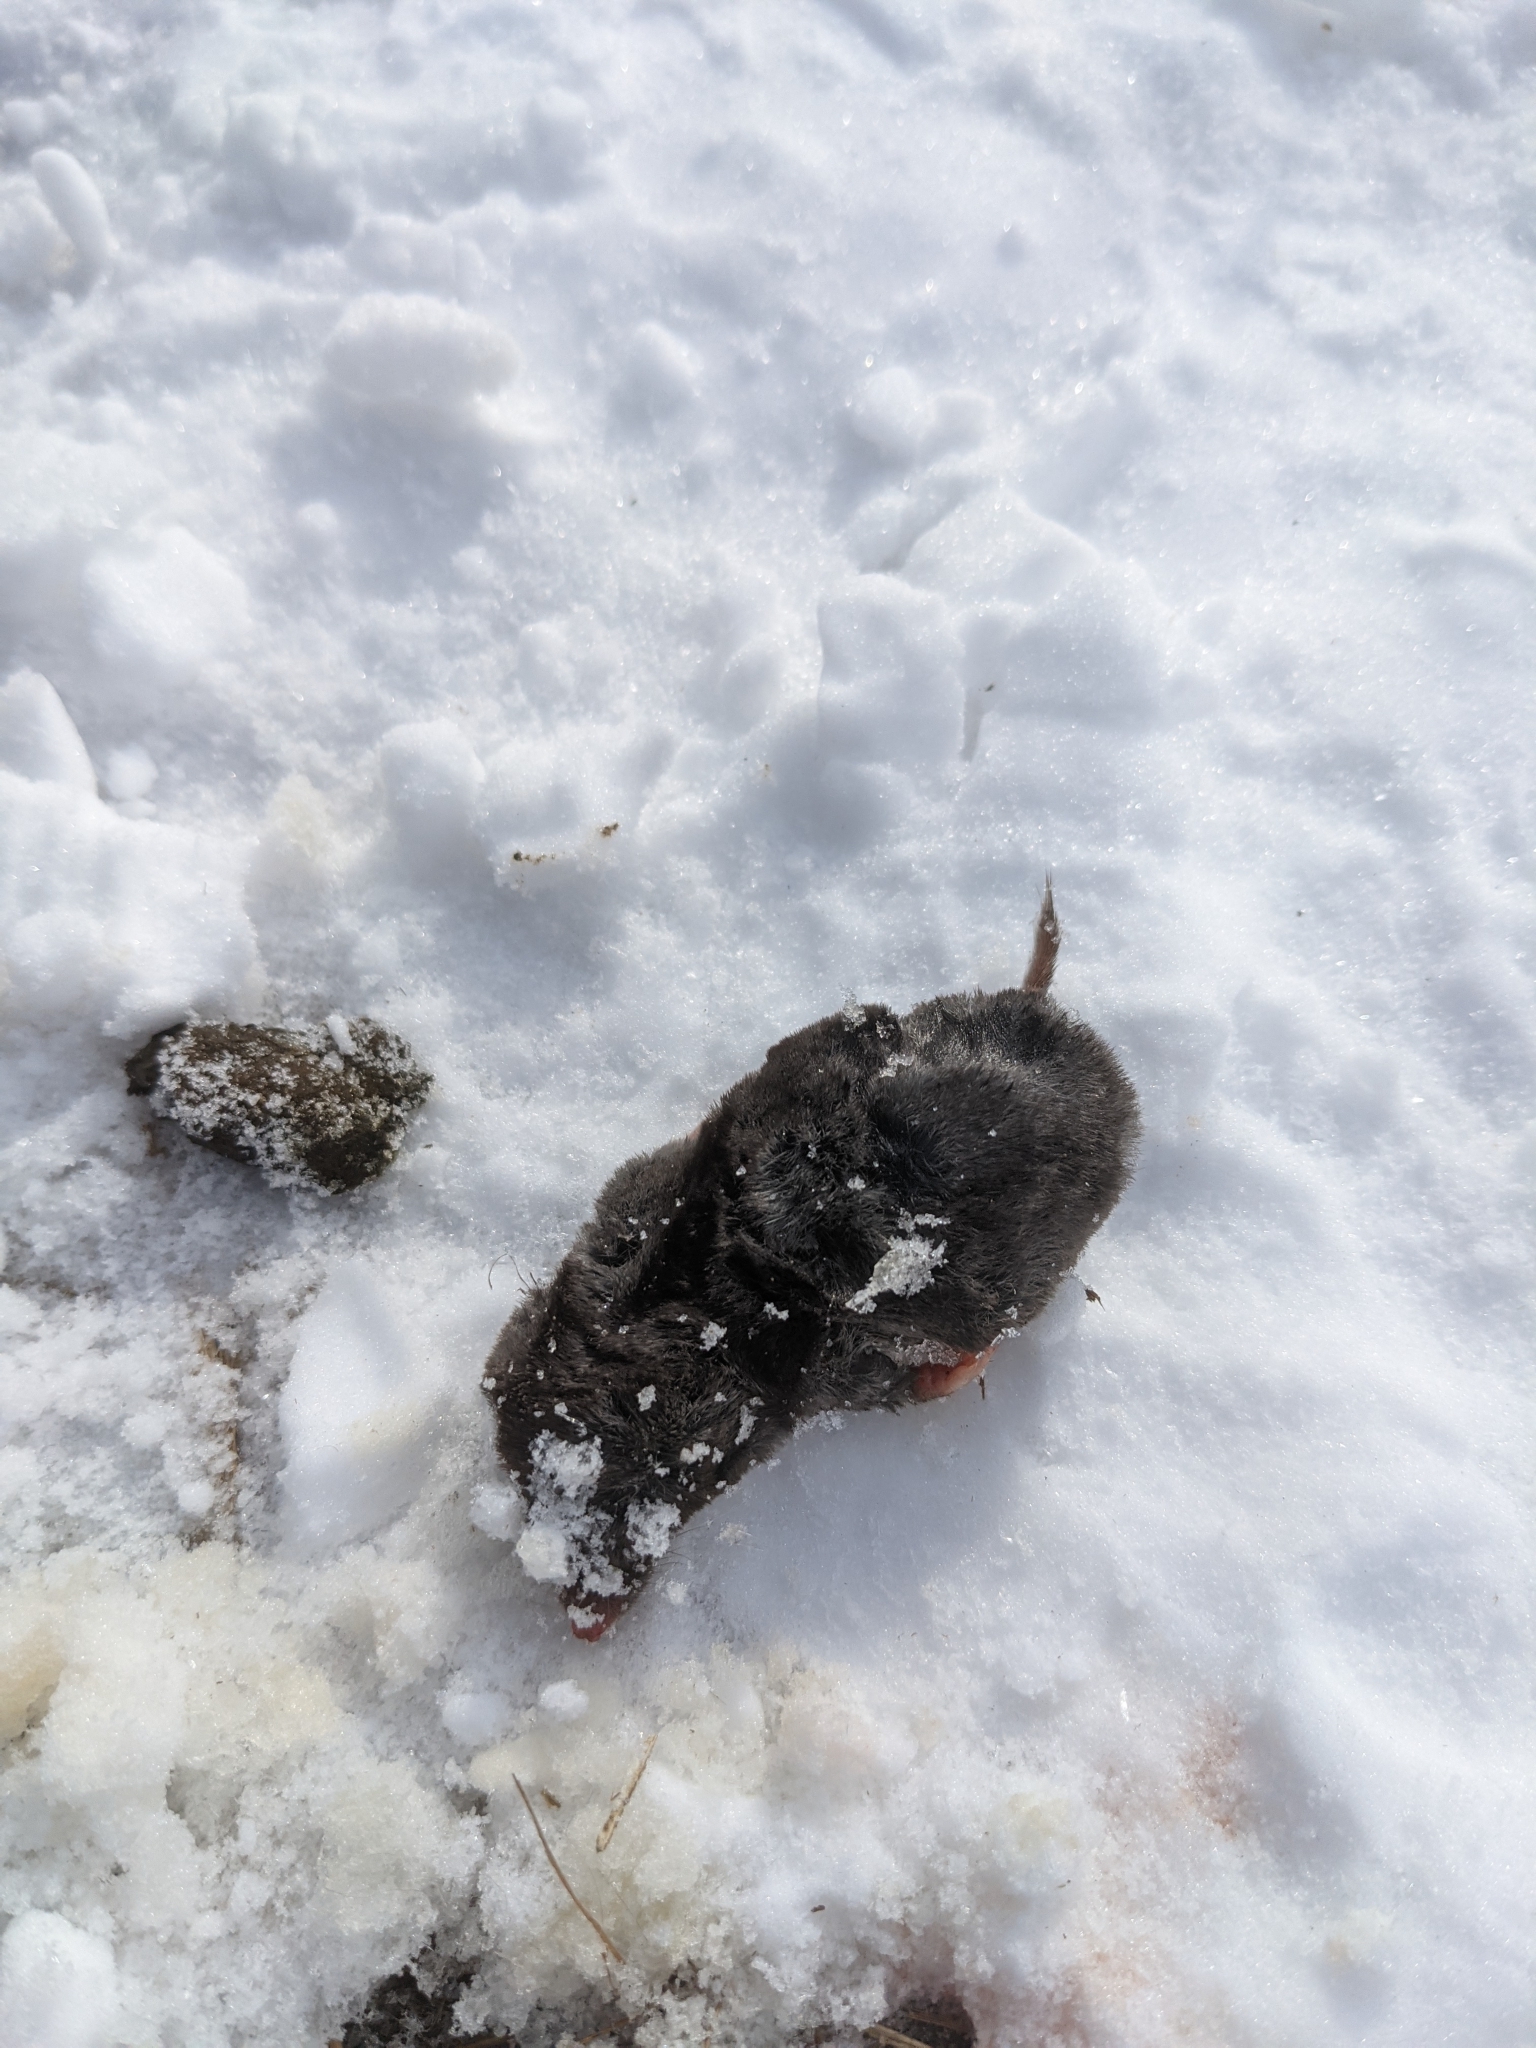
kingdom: Animalia
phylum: Chordata
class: Mammalia
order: Soricomorpha
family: Soricidae
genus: Blarina
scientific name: Blarina brevicauda
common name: Northern short-tailed shrew
